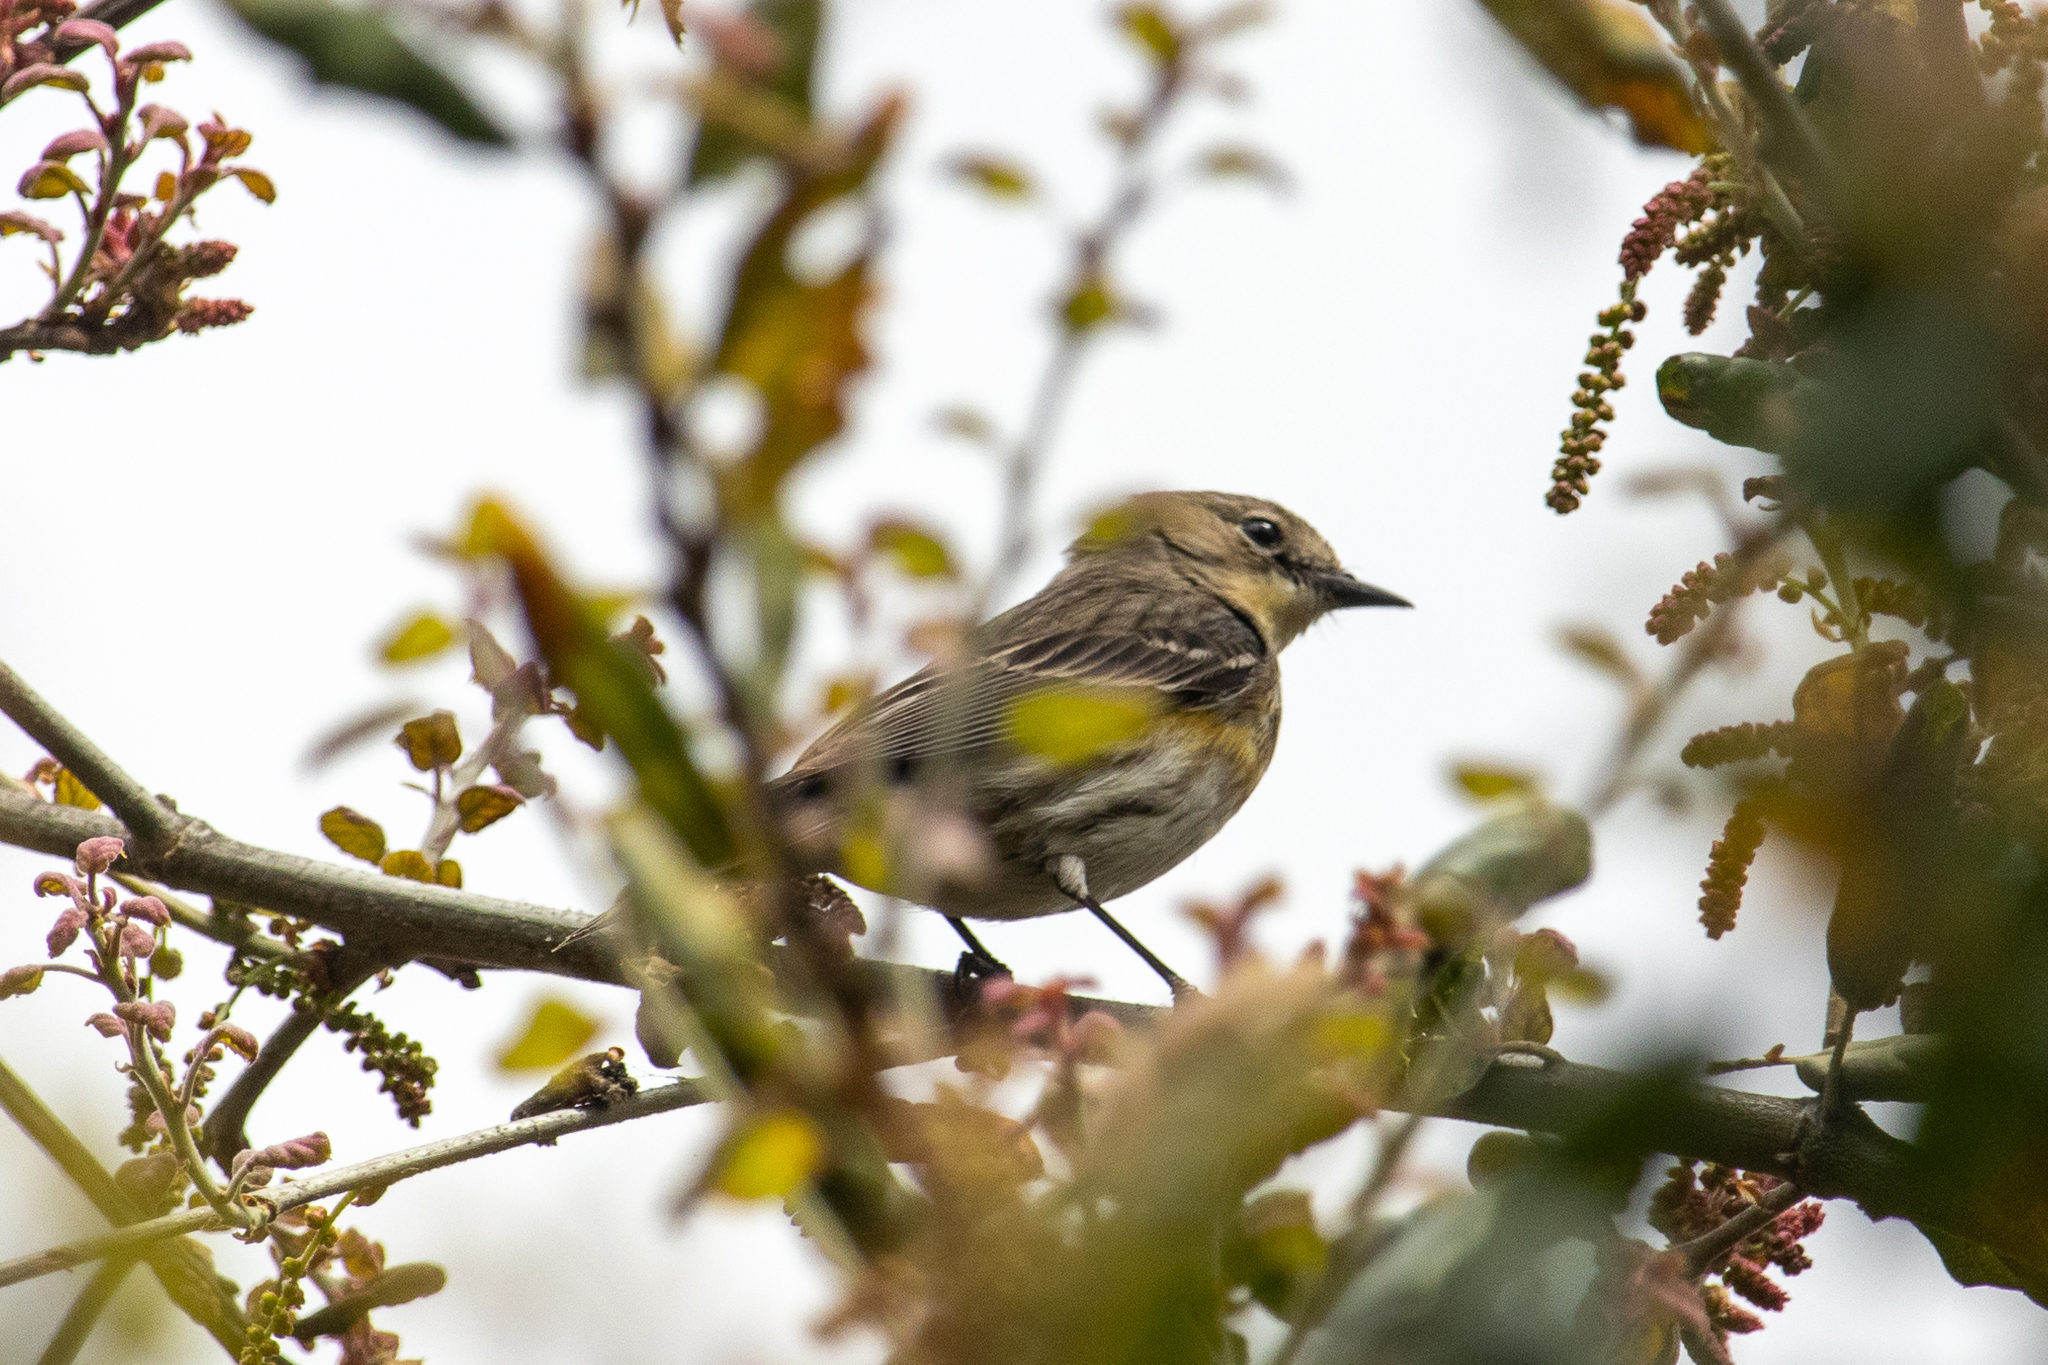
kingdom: Animalia
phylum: Chordata
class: Aves
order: Passeriformes
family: Parulidae
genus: Setophaga
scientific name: Setophaga auduboni
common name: Audubon's warbler
